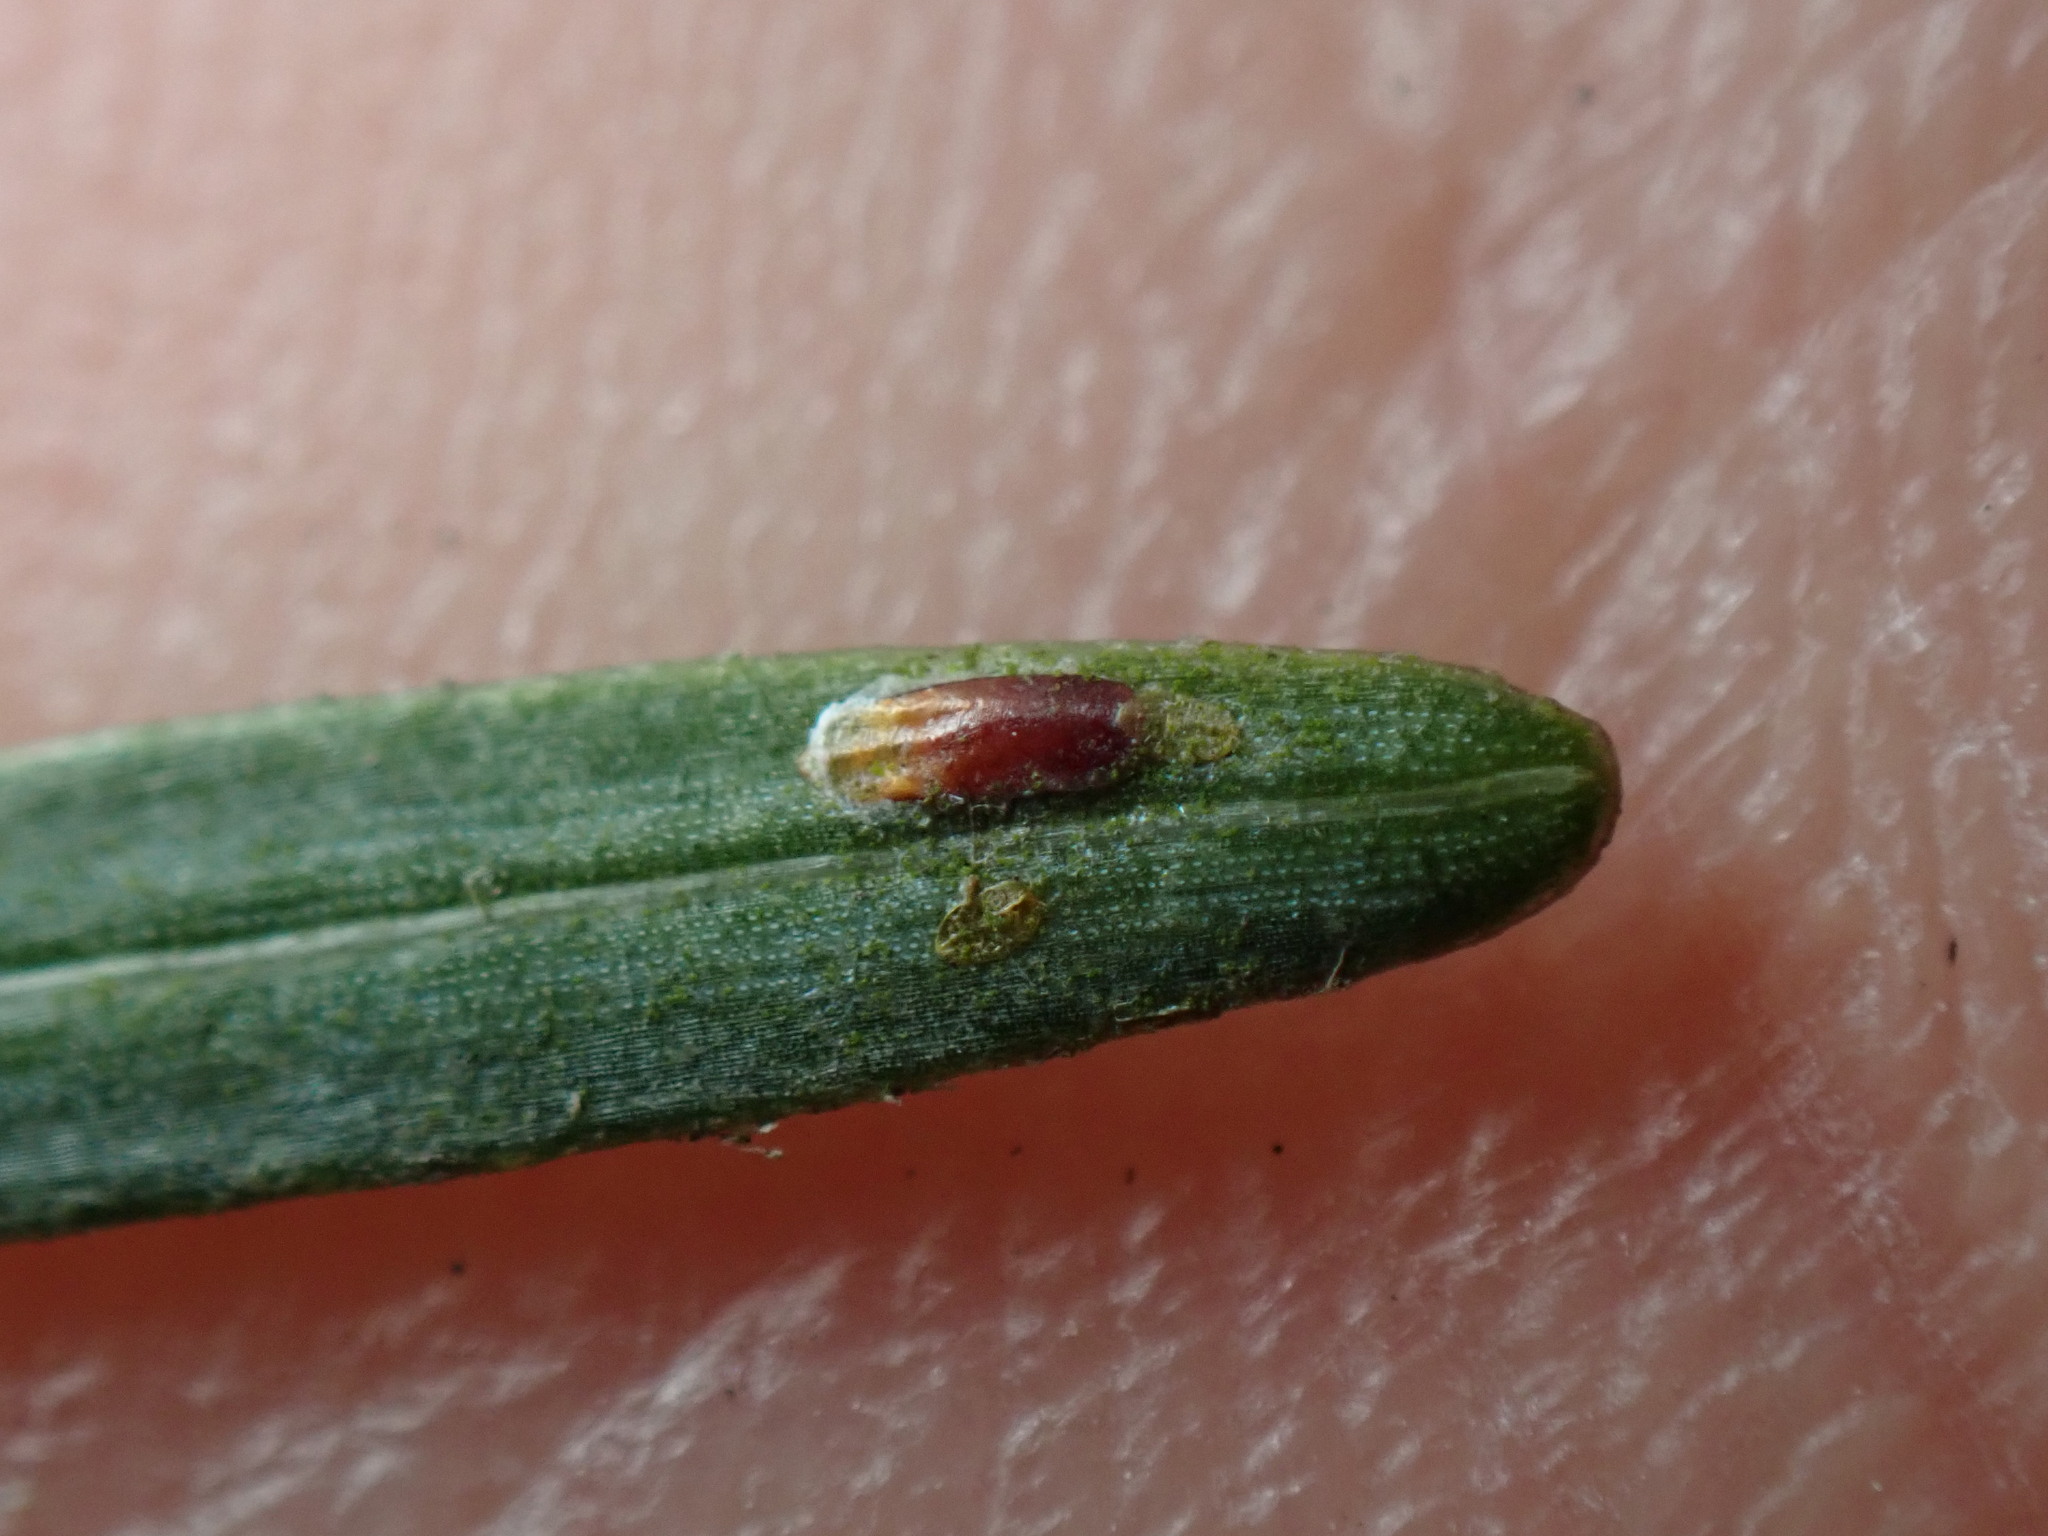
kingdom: Animalia
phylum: Arthropoda
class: Insecta
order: Hemiptera
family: Diaspididae
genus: Fiorinia
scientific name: Fiorinia externa
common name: Elongate hemlock scale
